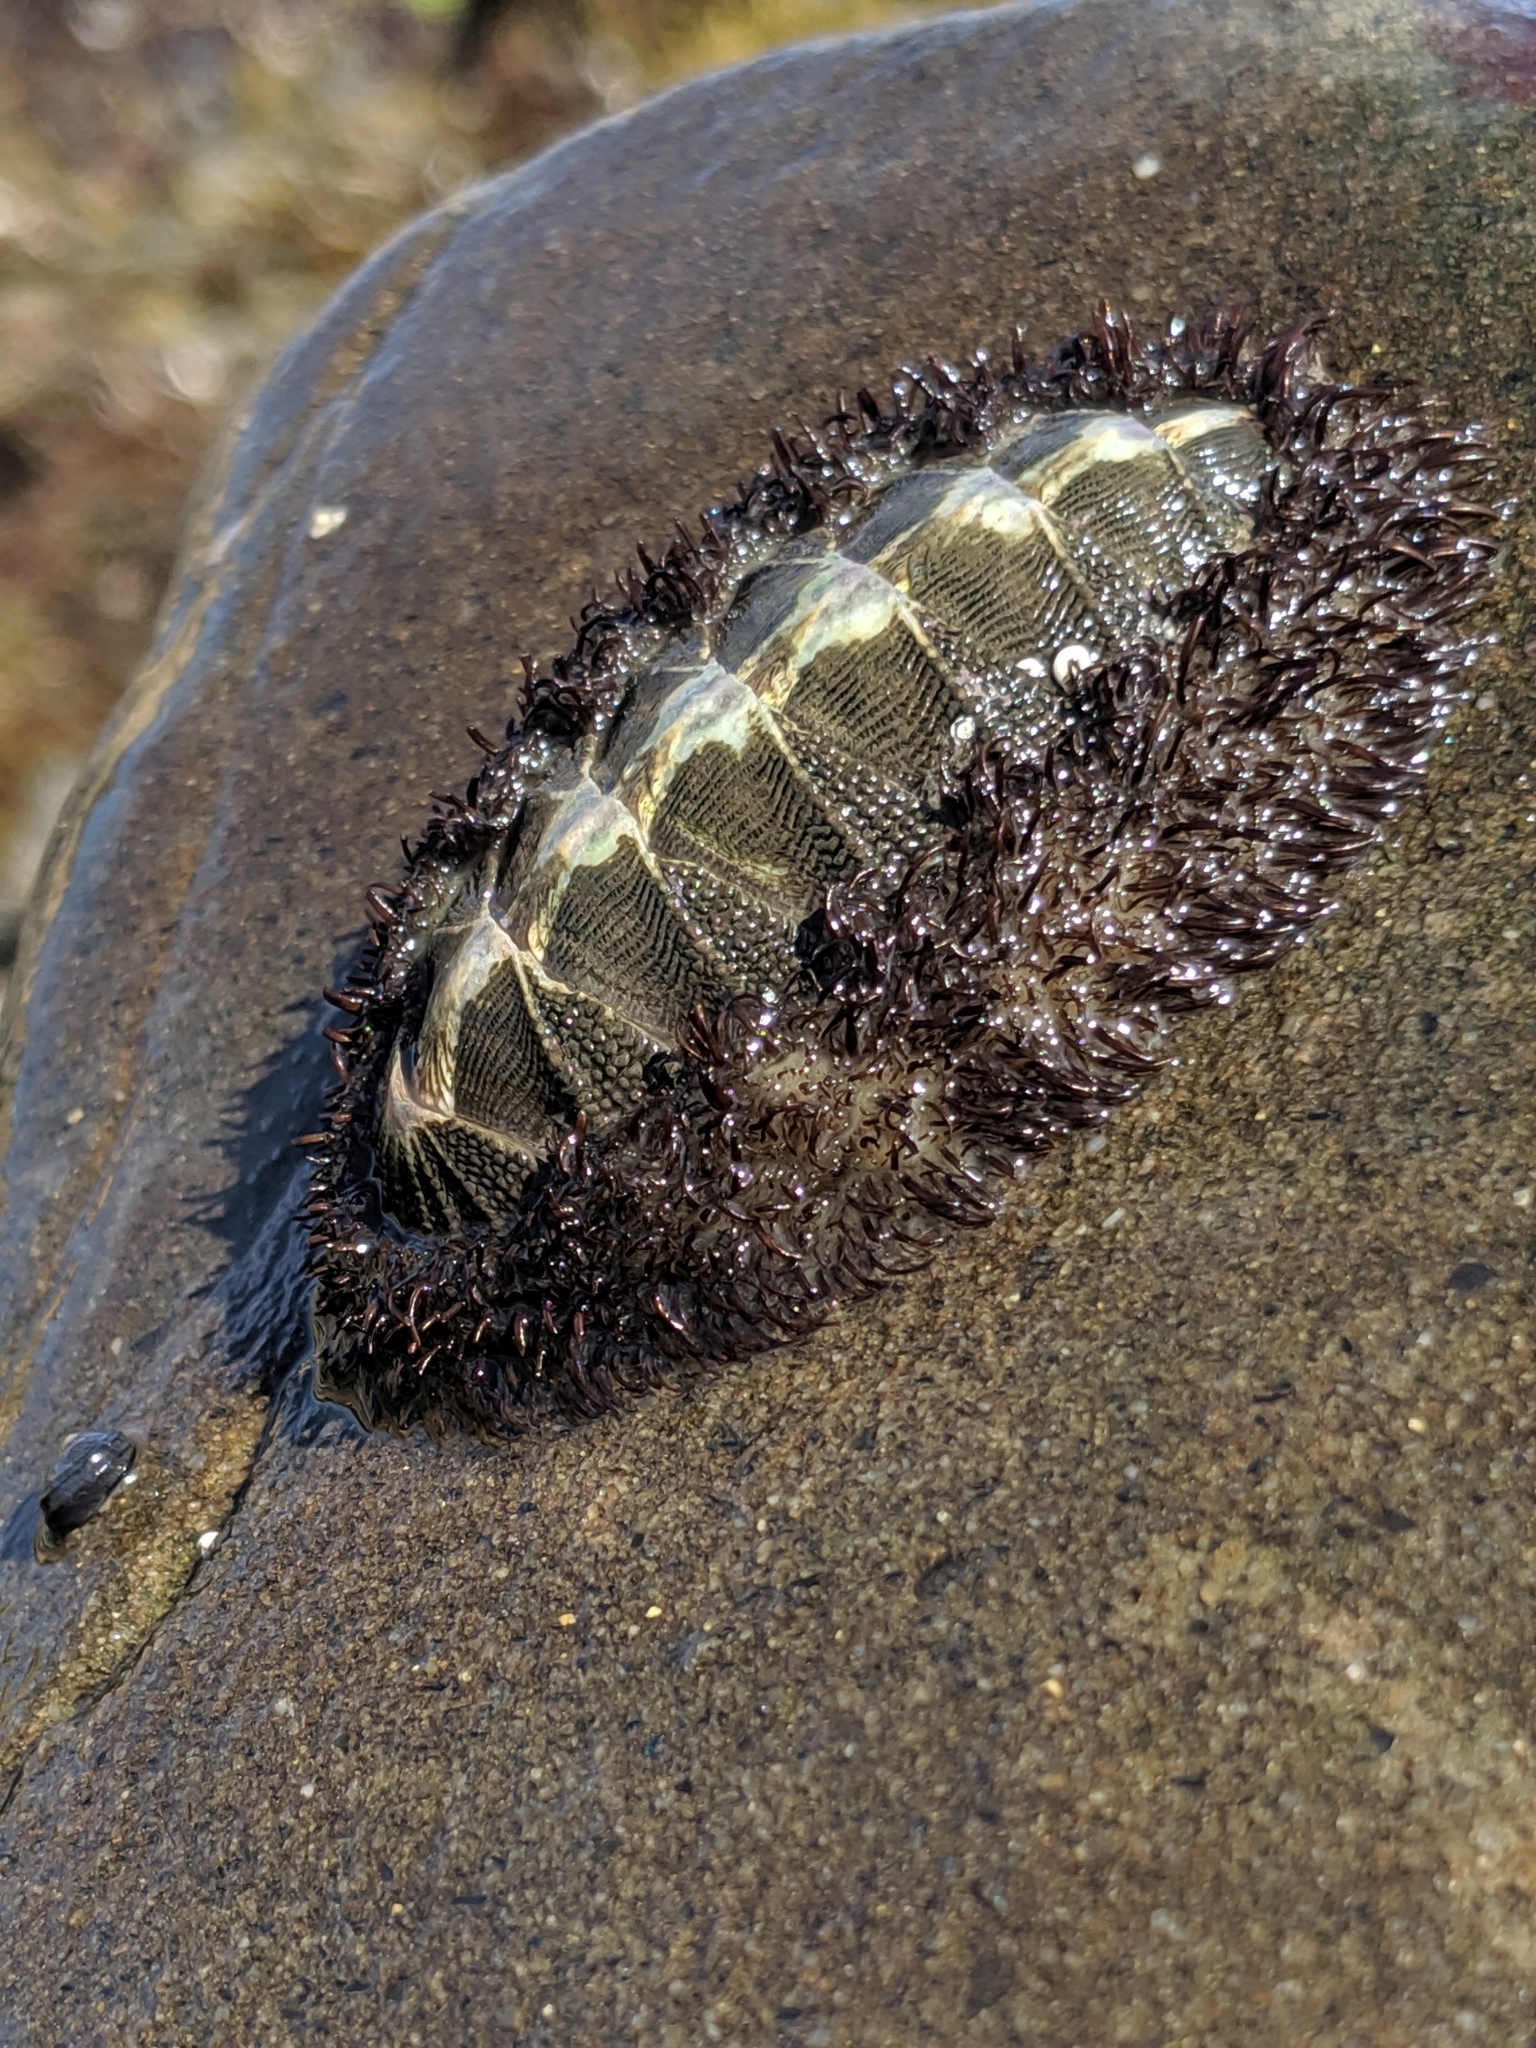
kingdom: Animalia
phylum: Mollusca
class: Polyplacophora
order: Chitonida
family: Mopaliidae
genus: Mopalia
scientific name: Mopalia muscosa
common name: Mossy chiton
